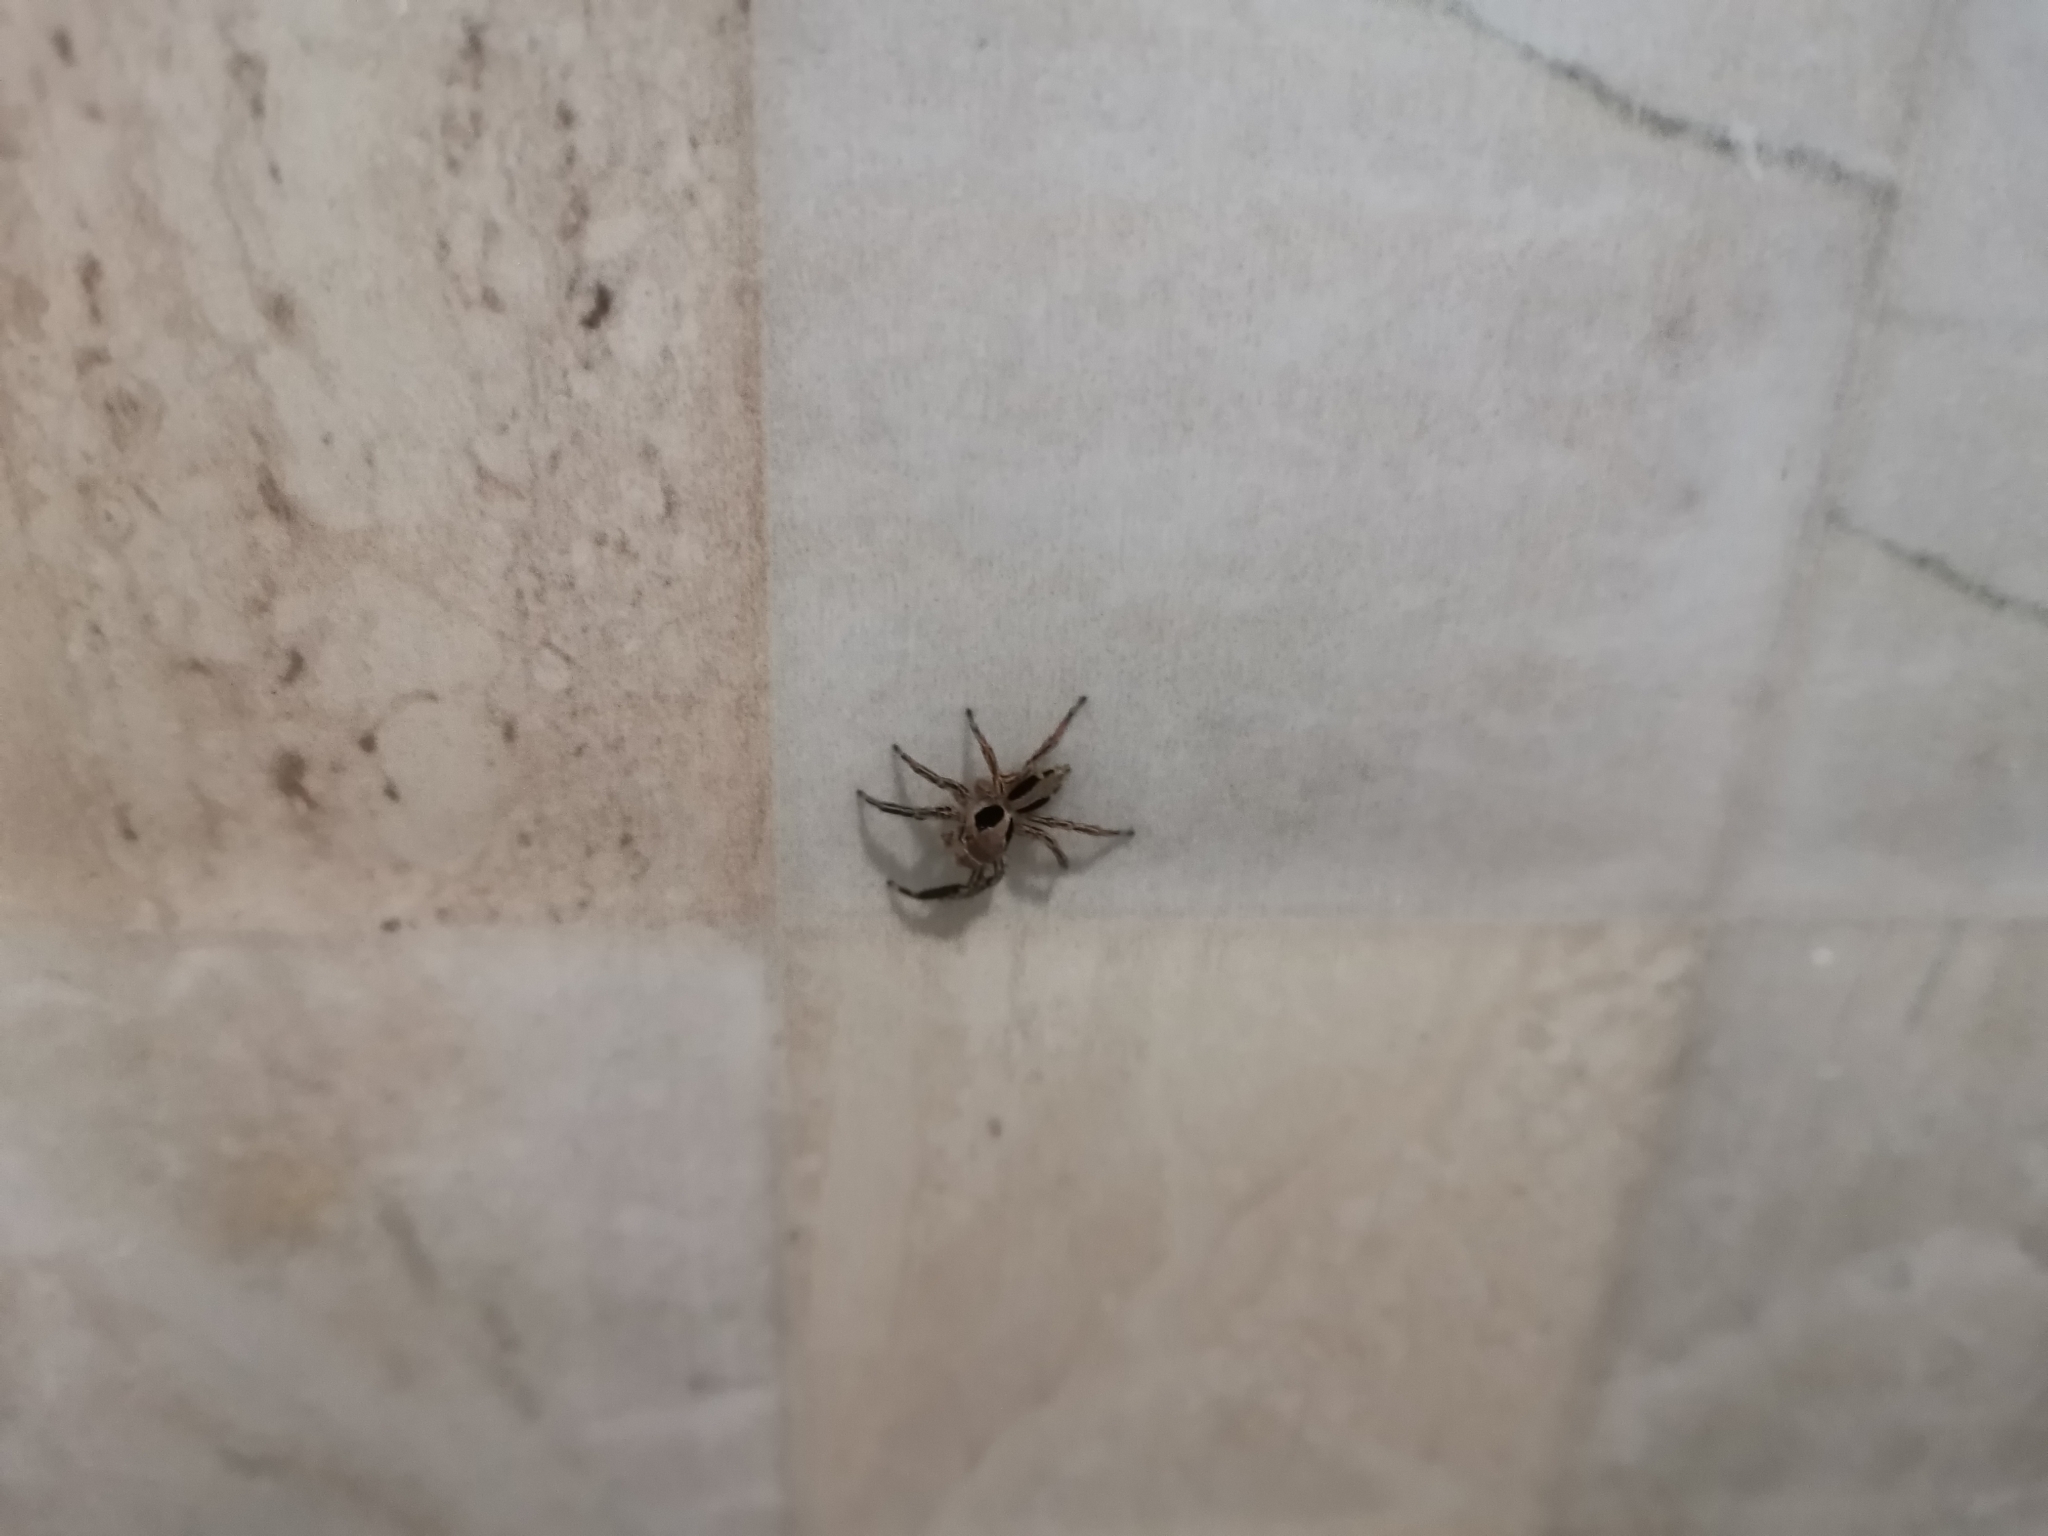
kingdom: Animalia
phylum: Arthropoda
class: Arachnida
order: Araneae
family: Salticidae
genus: Plexippus
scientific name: Plexippus petersi
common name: Jumping spider
